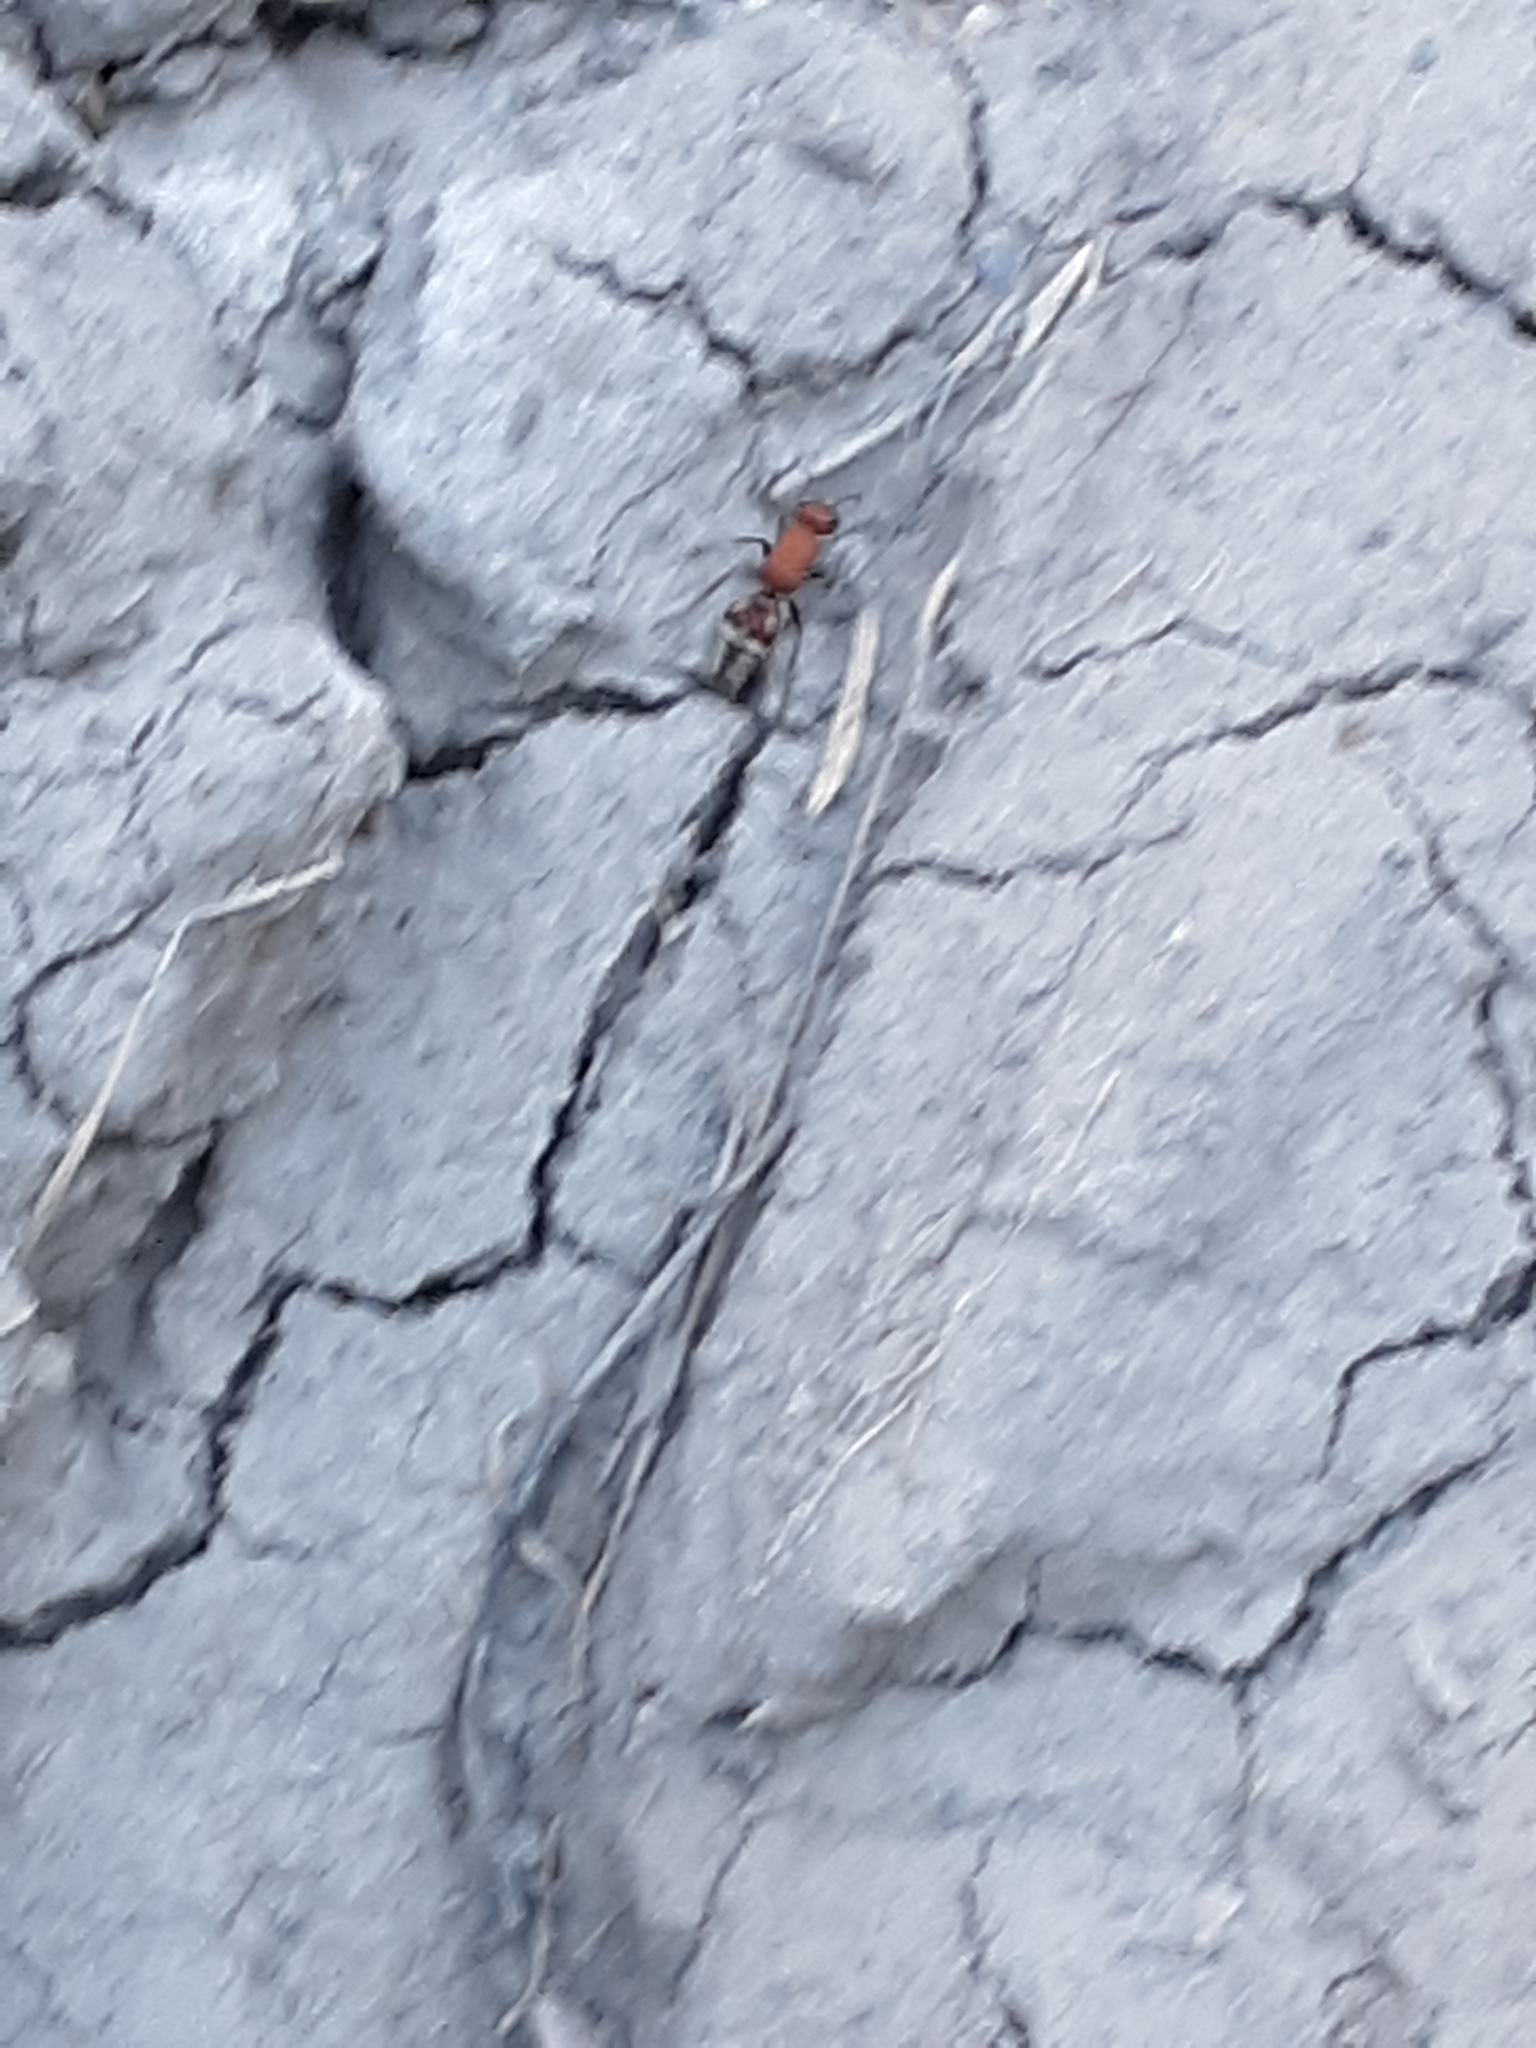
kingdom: Animalia
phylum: Arthropoda
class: Insecta
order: Hymenoptera
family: Mutillidae
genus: Timulla
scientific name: Timulla
